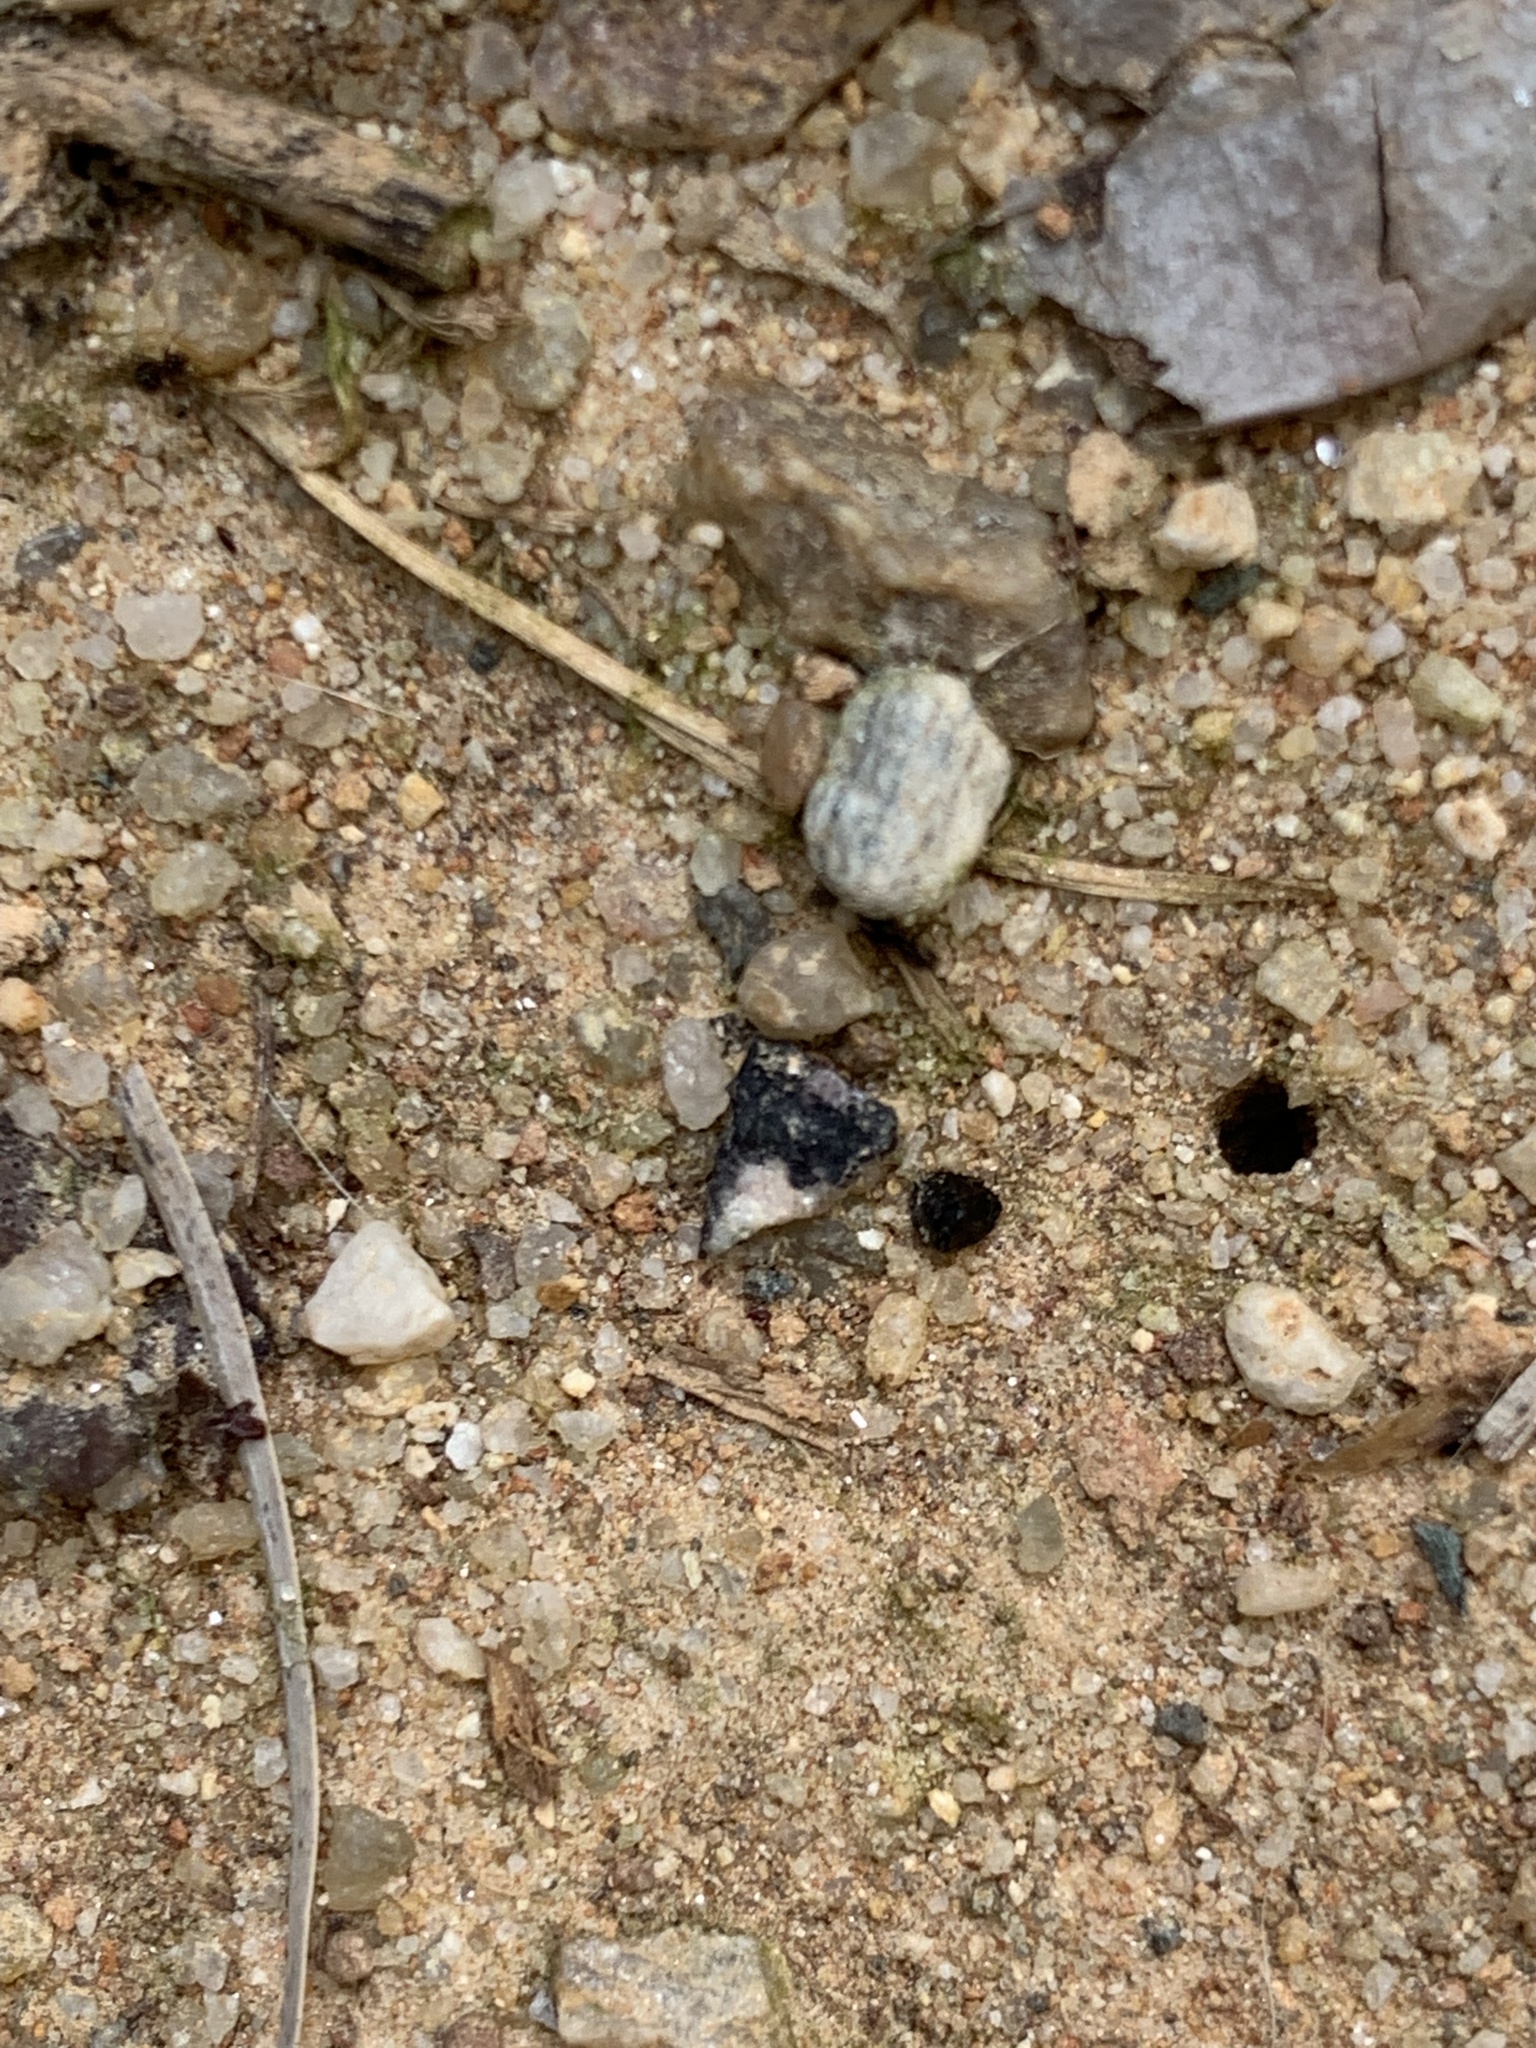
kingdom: Animalia
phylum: Arthropoda
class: Insecta
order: Hymenoptera
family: Formicidae
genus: Brachymyrmex
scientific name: Brachymyrmex patagonicus
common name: Dark rover ant
